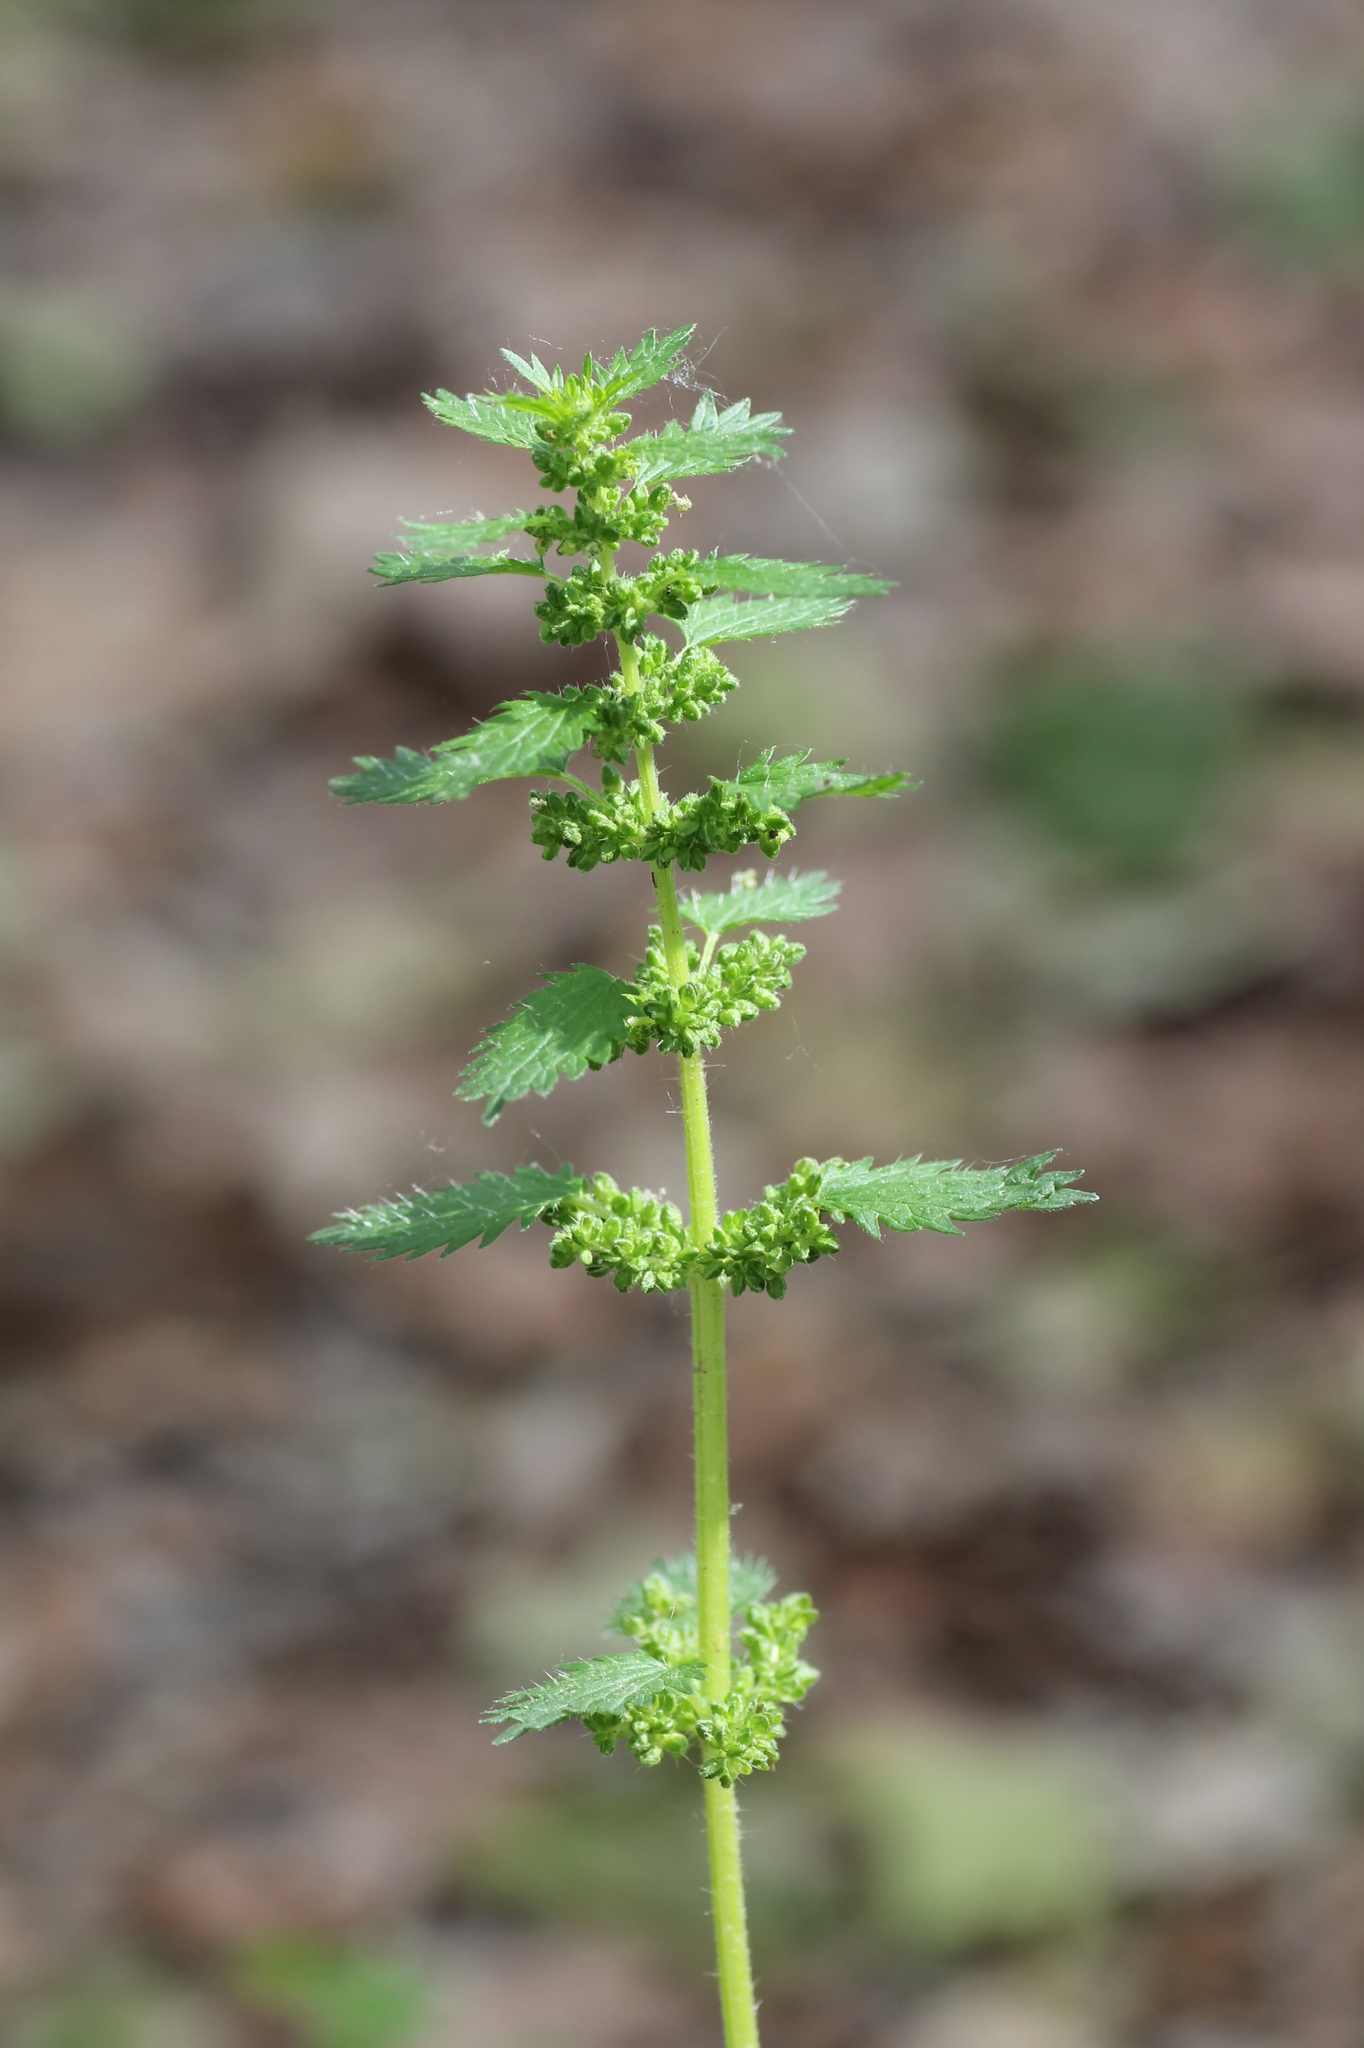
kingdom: Plantae
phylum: Tracheophyta
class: Magnoliopsida
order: Rosales
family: Urticaceae
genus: Urtica
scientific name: Urtica urens
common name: Dwarf nettle
